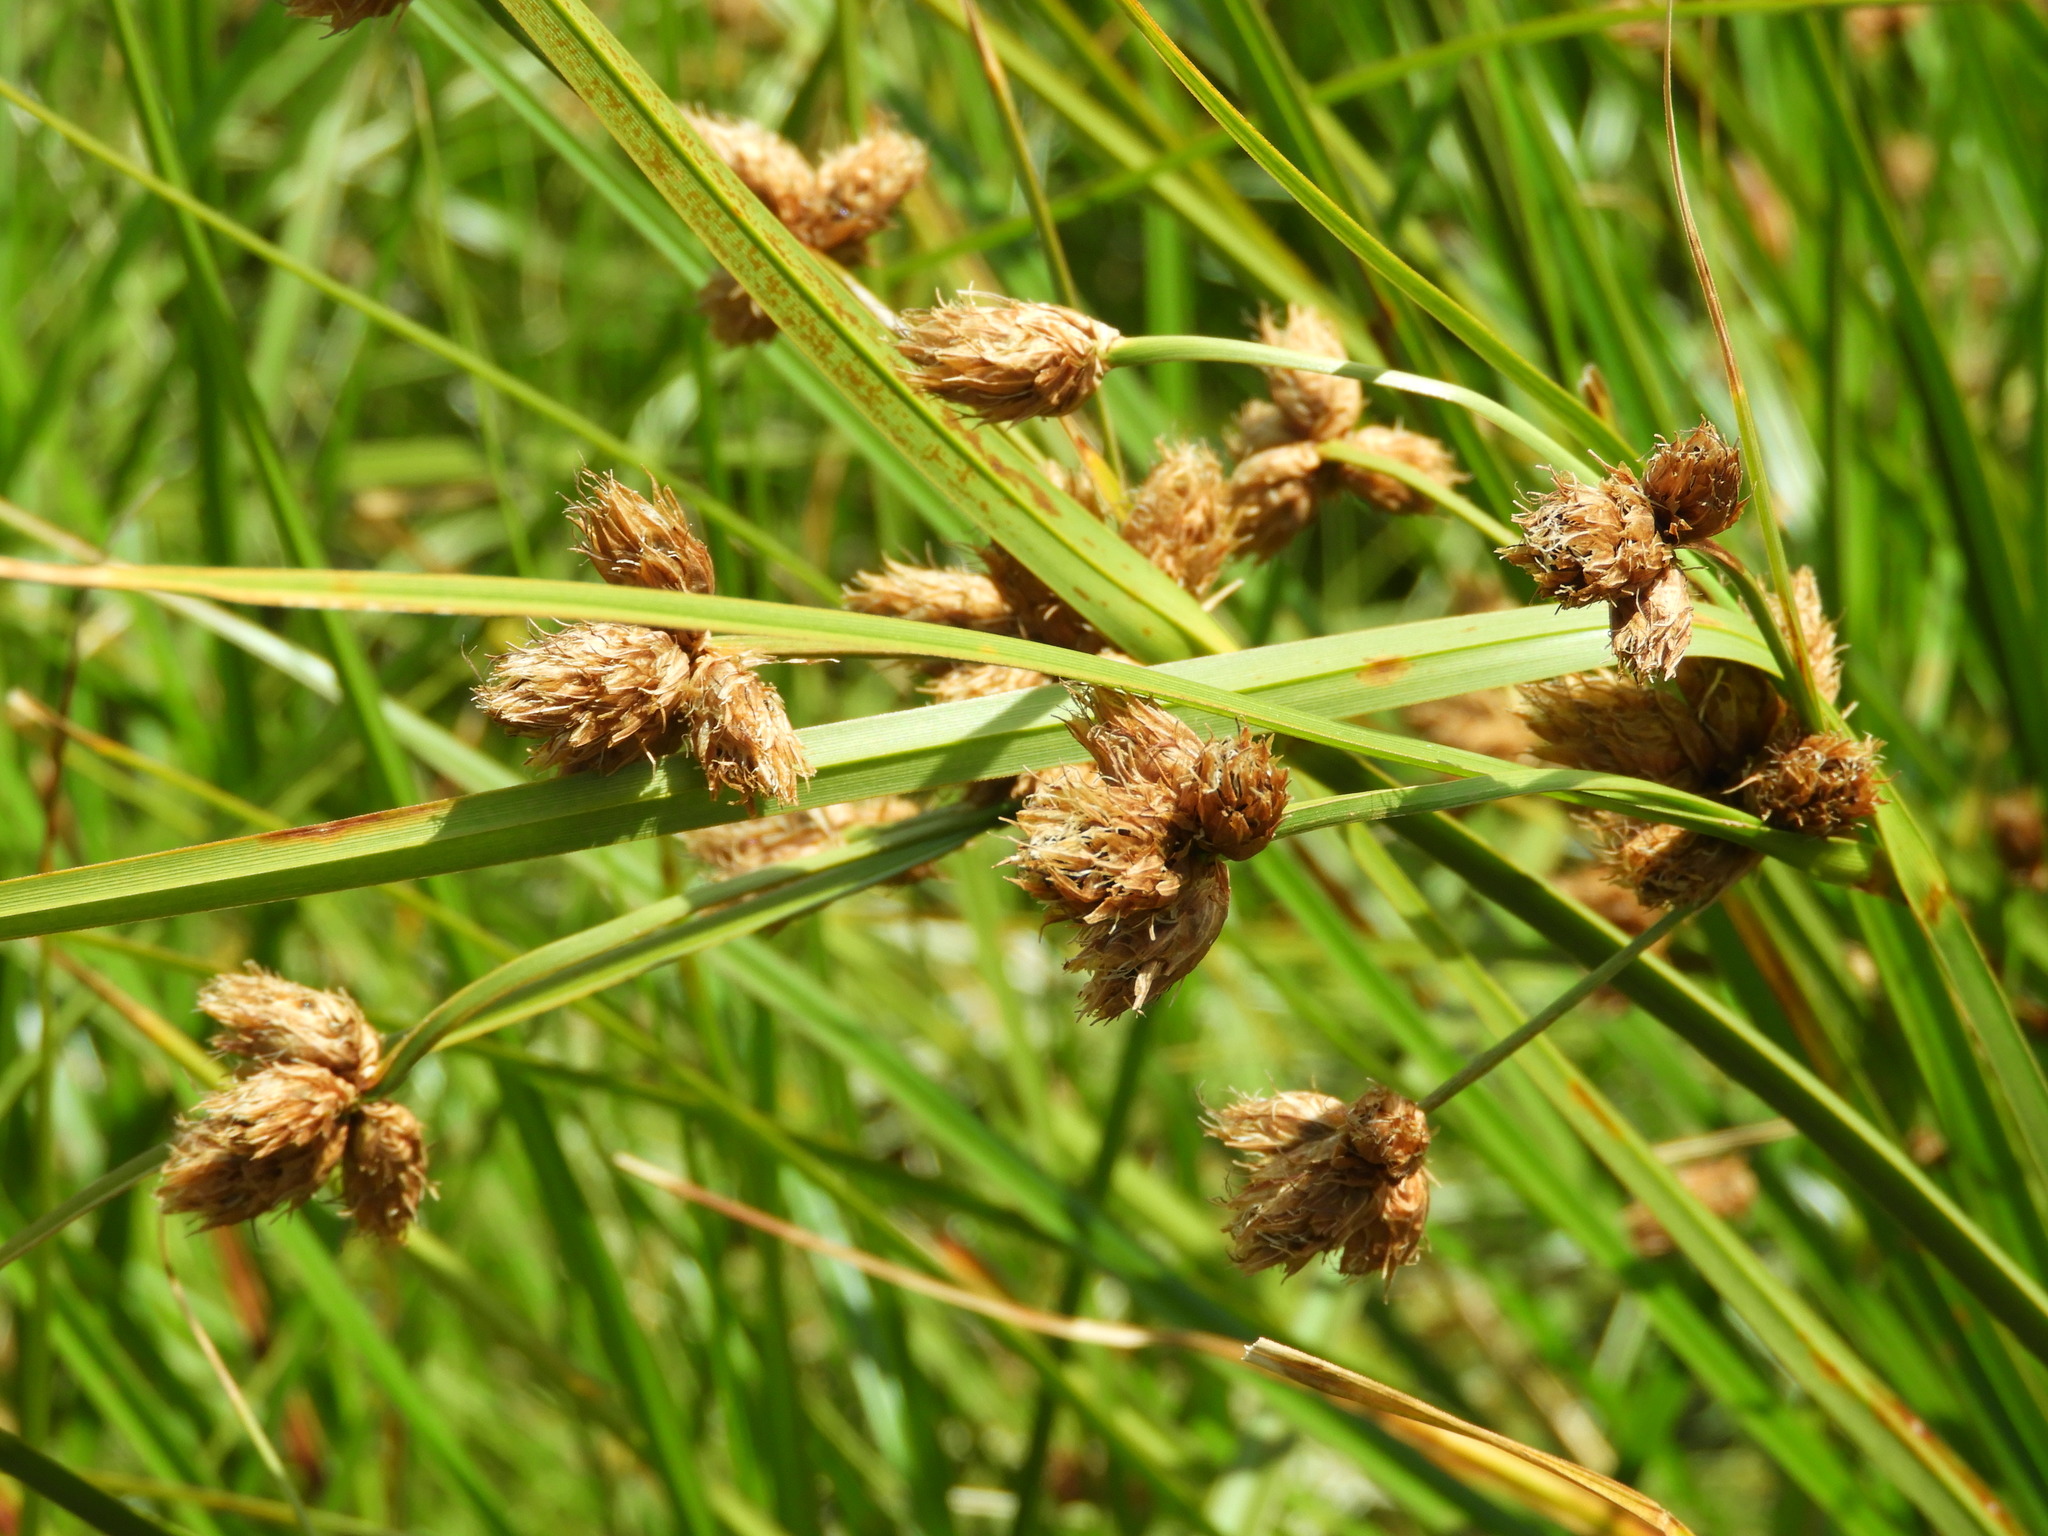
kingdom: Plantae
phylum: Tracheophyta
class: Liliopsida
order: Poales
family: Cyperaceae
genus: Bolboschoenus
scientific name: Bolboschoenus fluviatilis
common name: River bulrush
